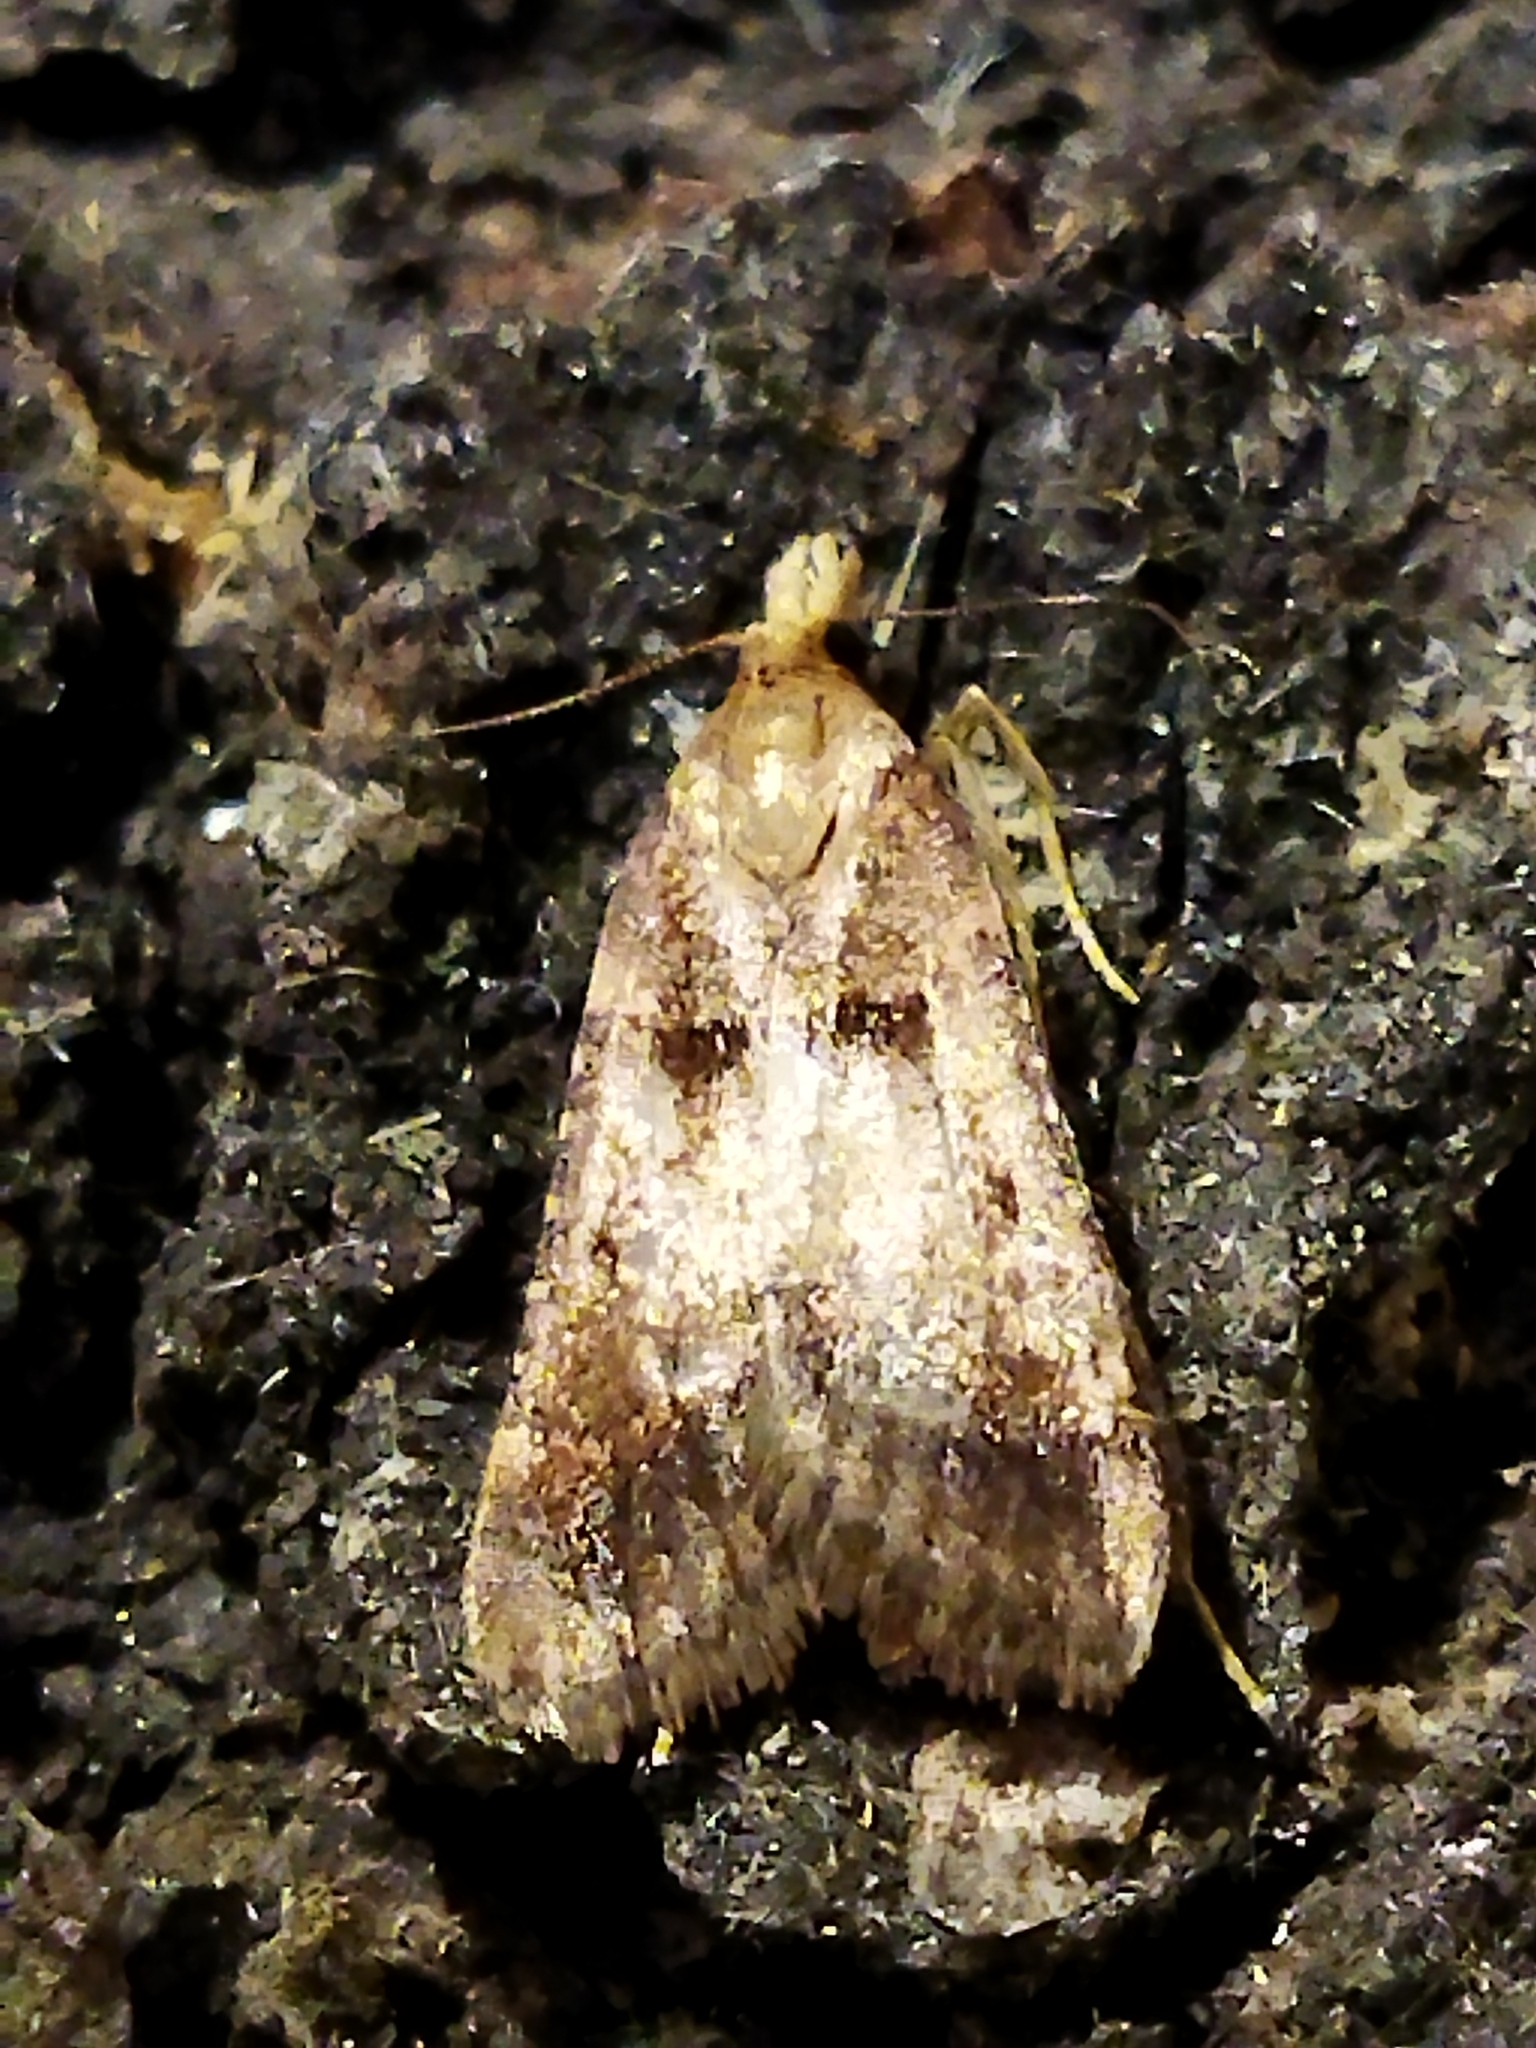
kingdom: Animalia
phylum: Arthropoda
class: Insecta
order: Lepidoptera
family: Pyralidae
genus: Stemmatophora
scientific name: Stemmatophora brunnealis
